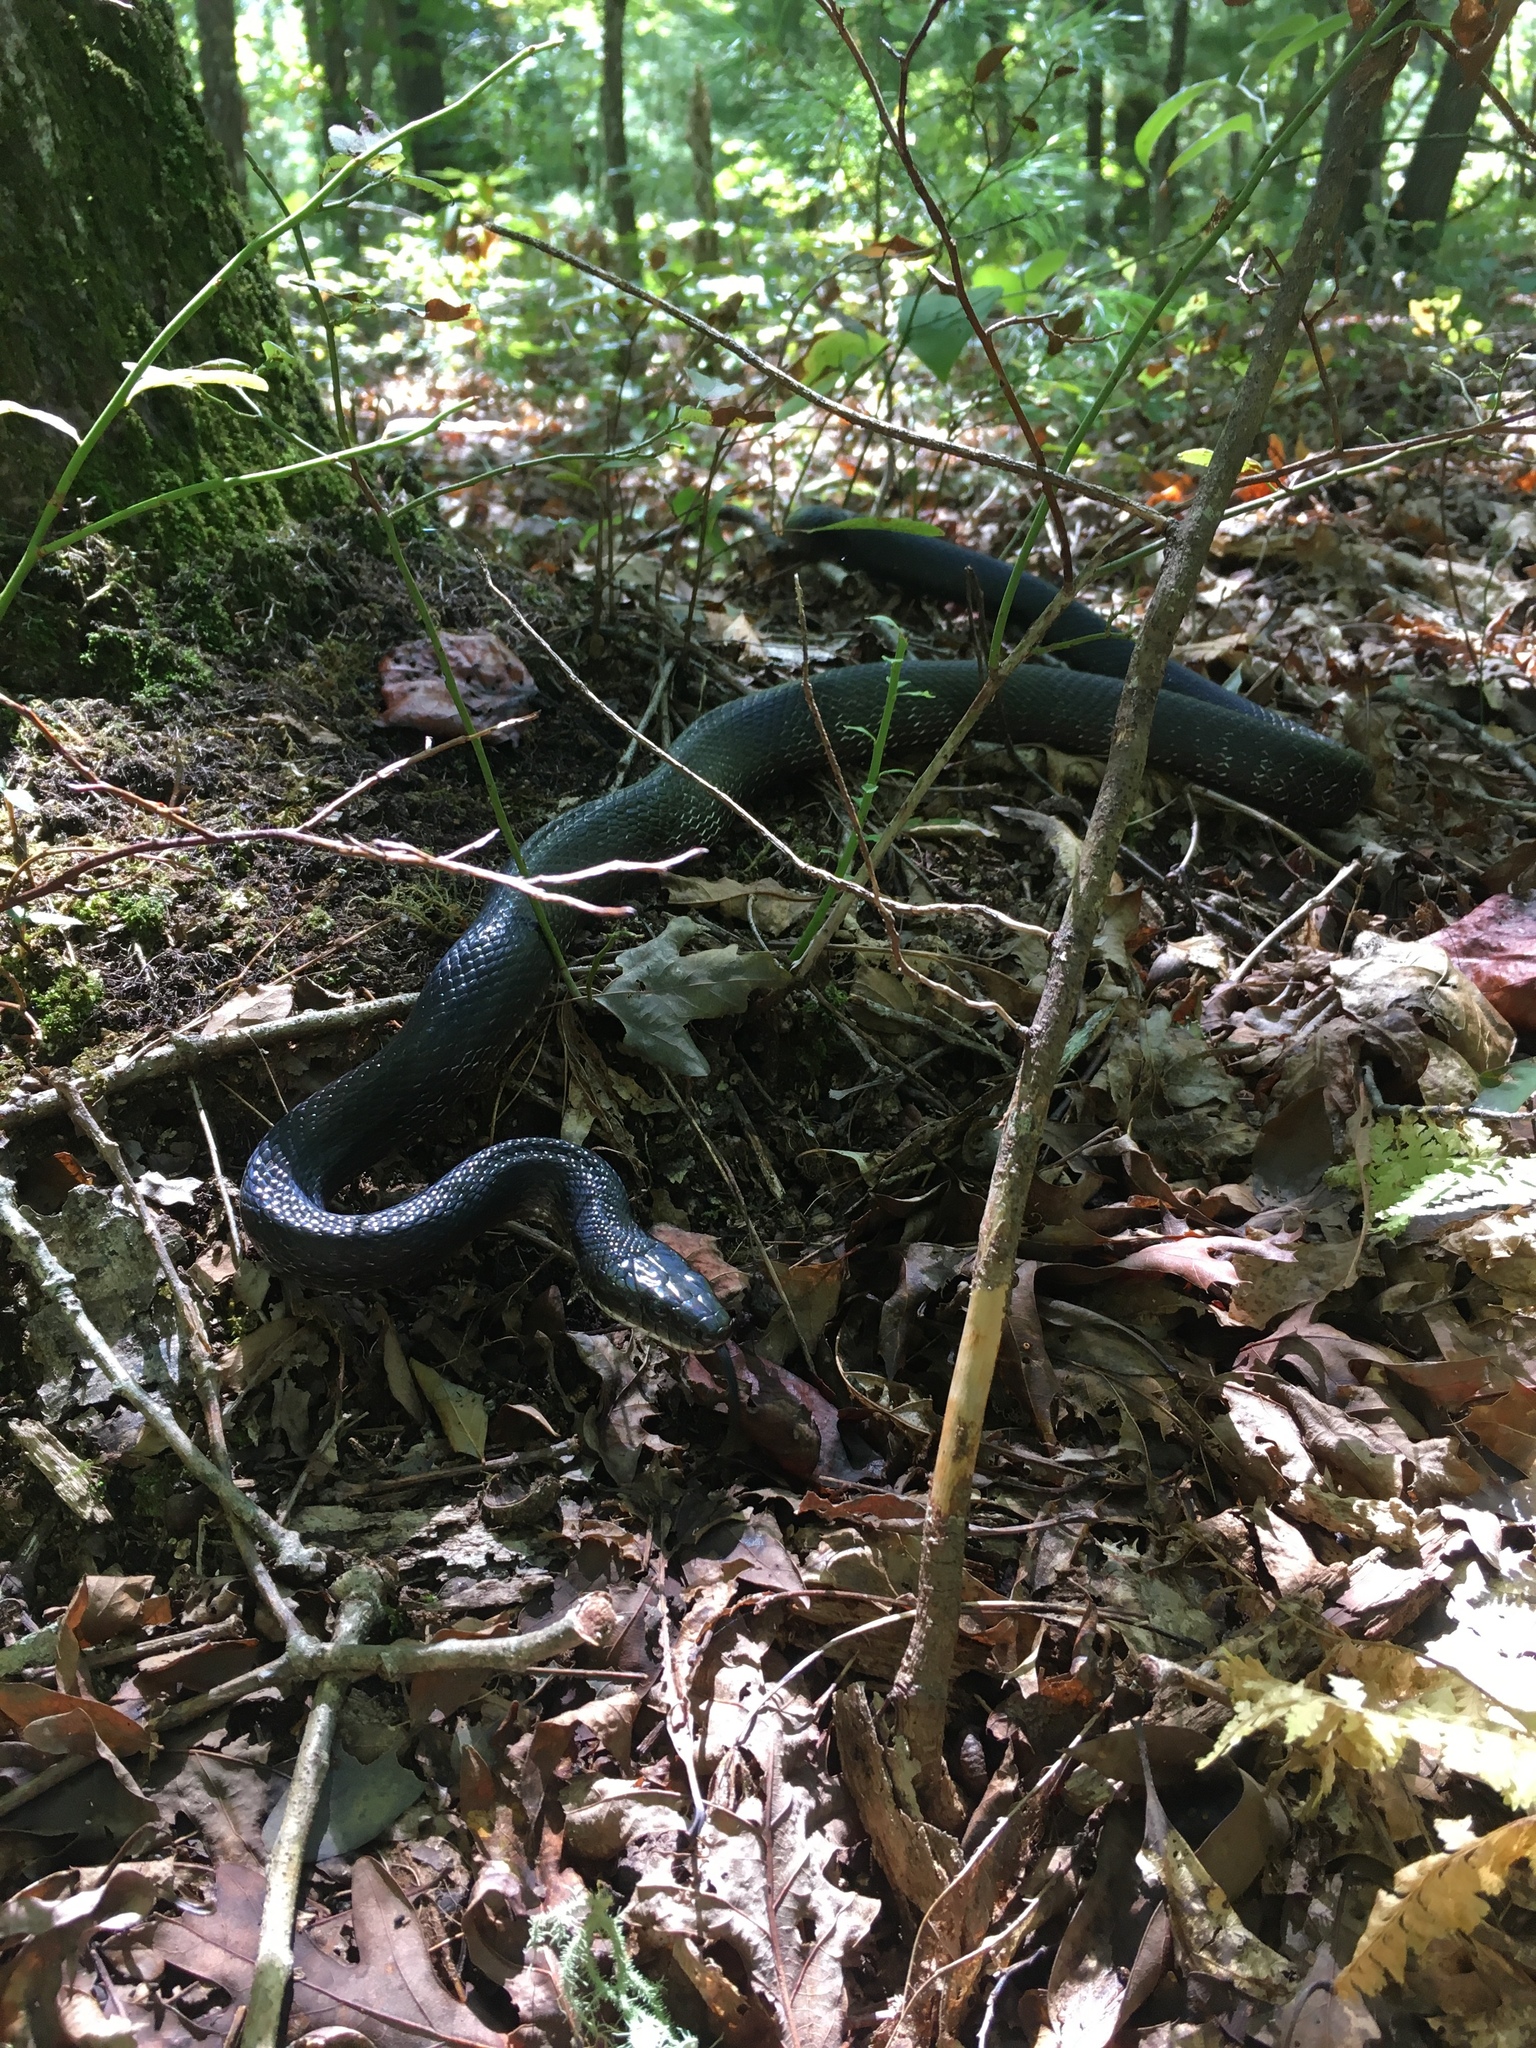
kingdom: Animalia
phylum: Chordata
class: Squamata
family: Colubridae
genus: Pantherophis
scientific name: Pantherophis alleghaniensis
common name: Eastern rat snake
